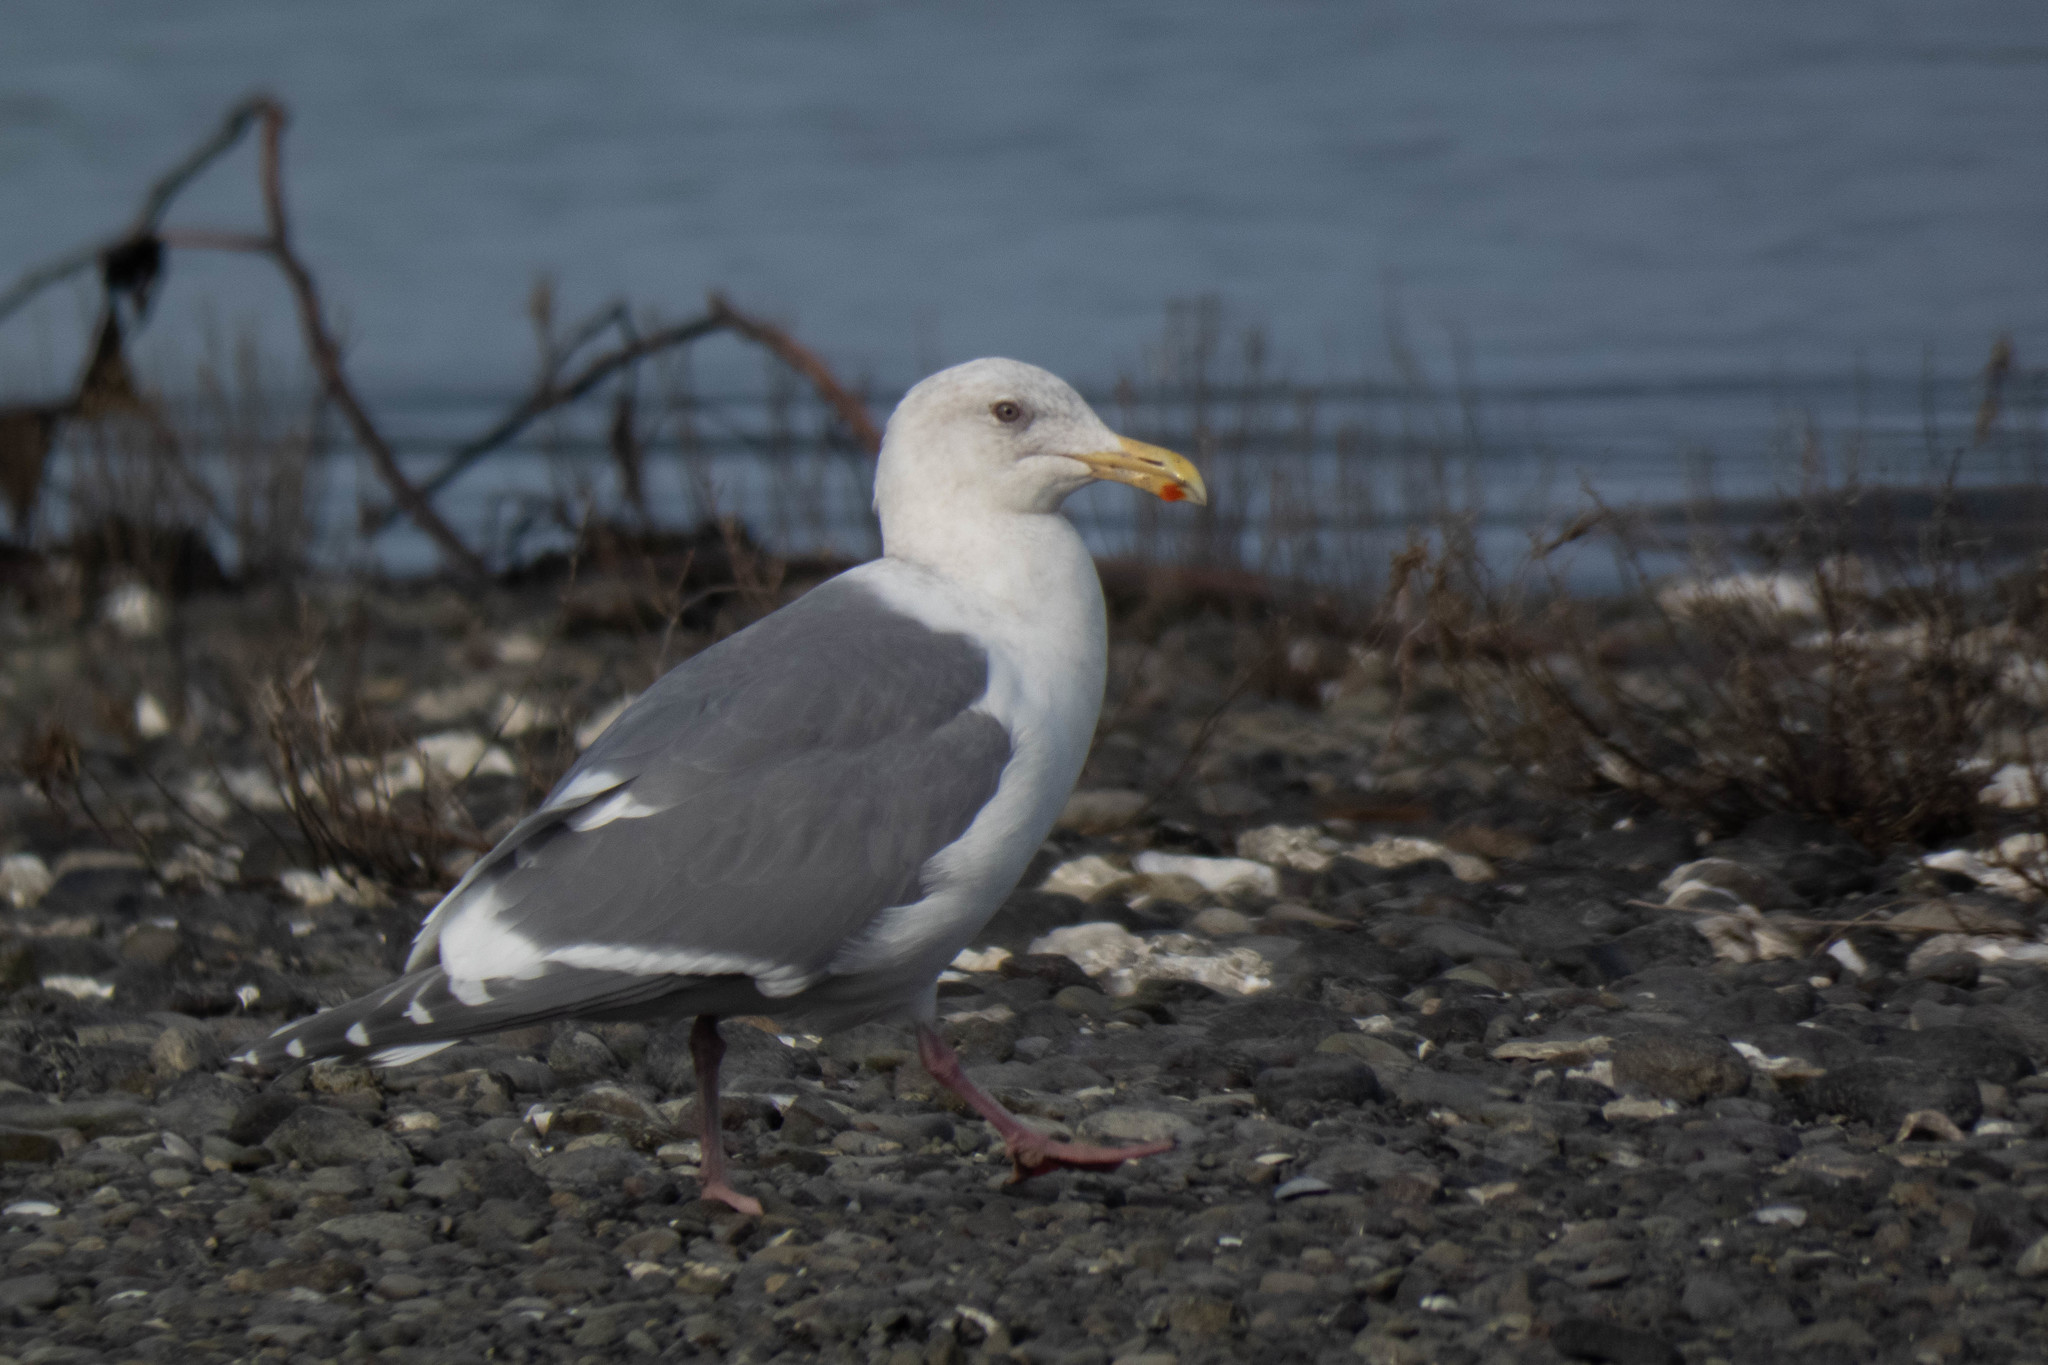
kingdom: Animalia
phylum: Chordata
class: Aves
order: Charadriiformes
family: Laridae
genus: Larus
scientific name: Larus
